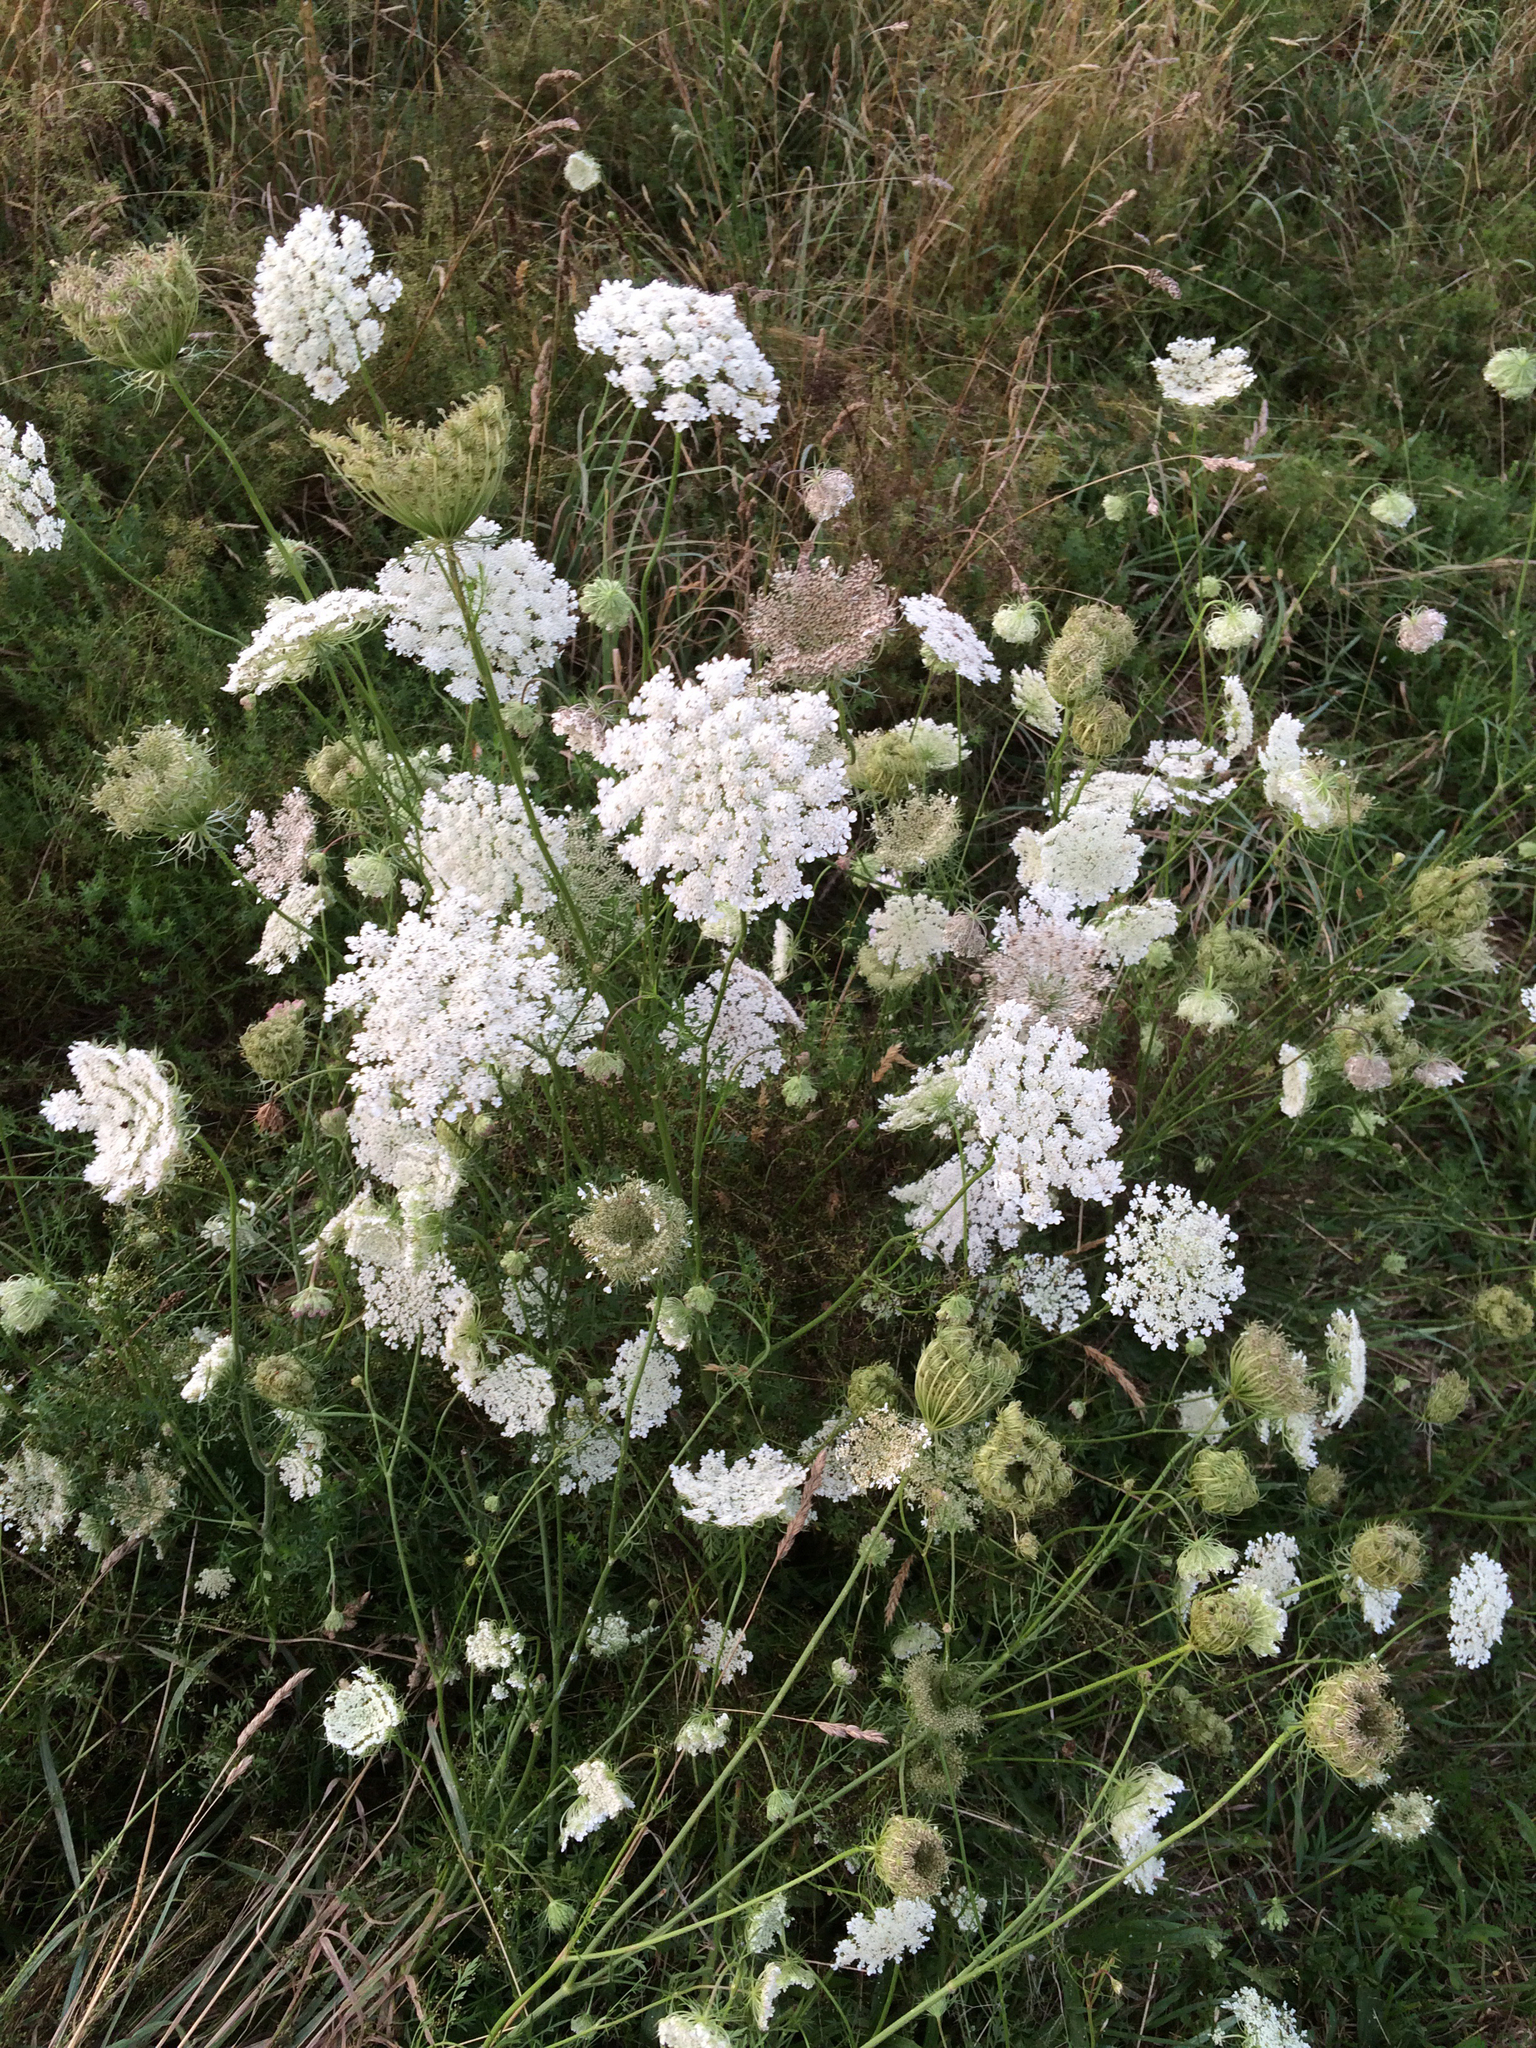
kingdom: Plantae
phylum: Tracheophyta
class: Magnoliopsida
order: Apiales
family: Apiaceae
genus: Daucus
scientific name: Daucus carota
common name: Wild carrot
